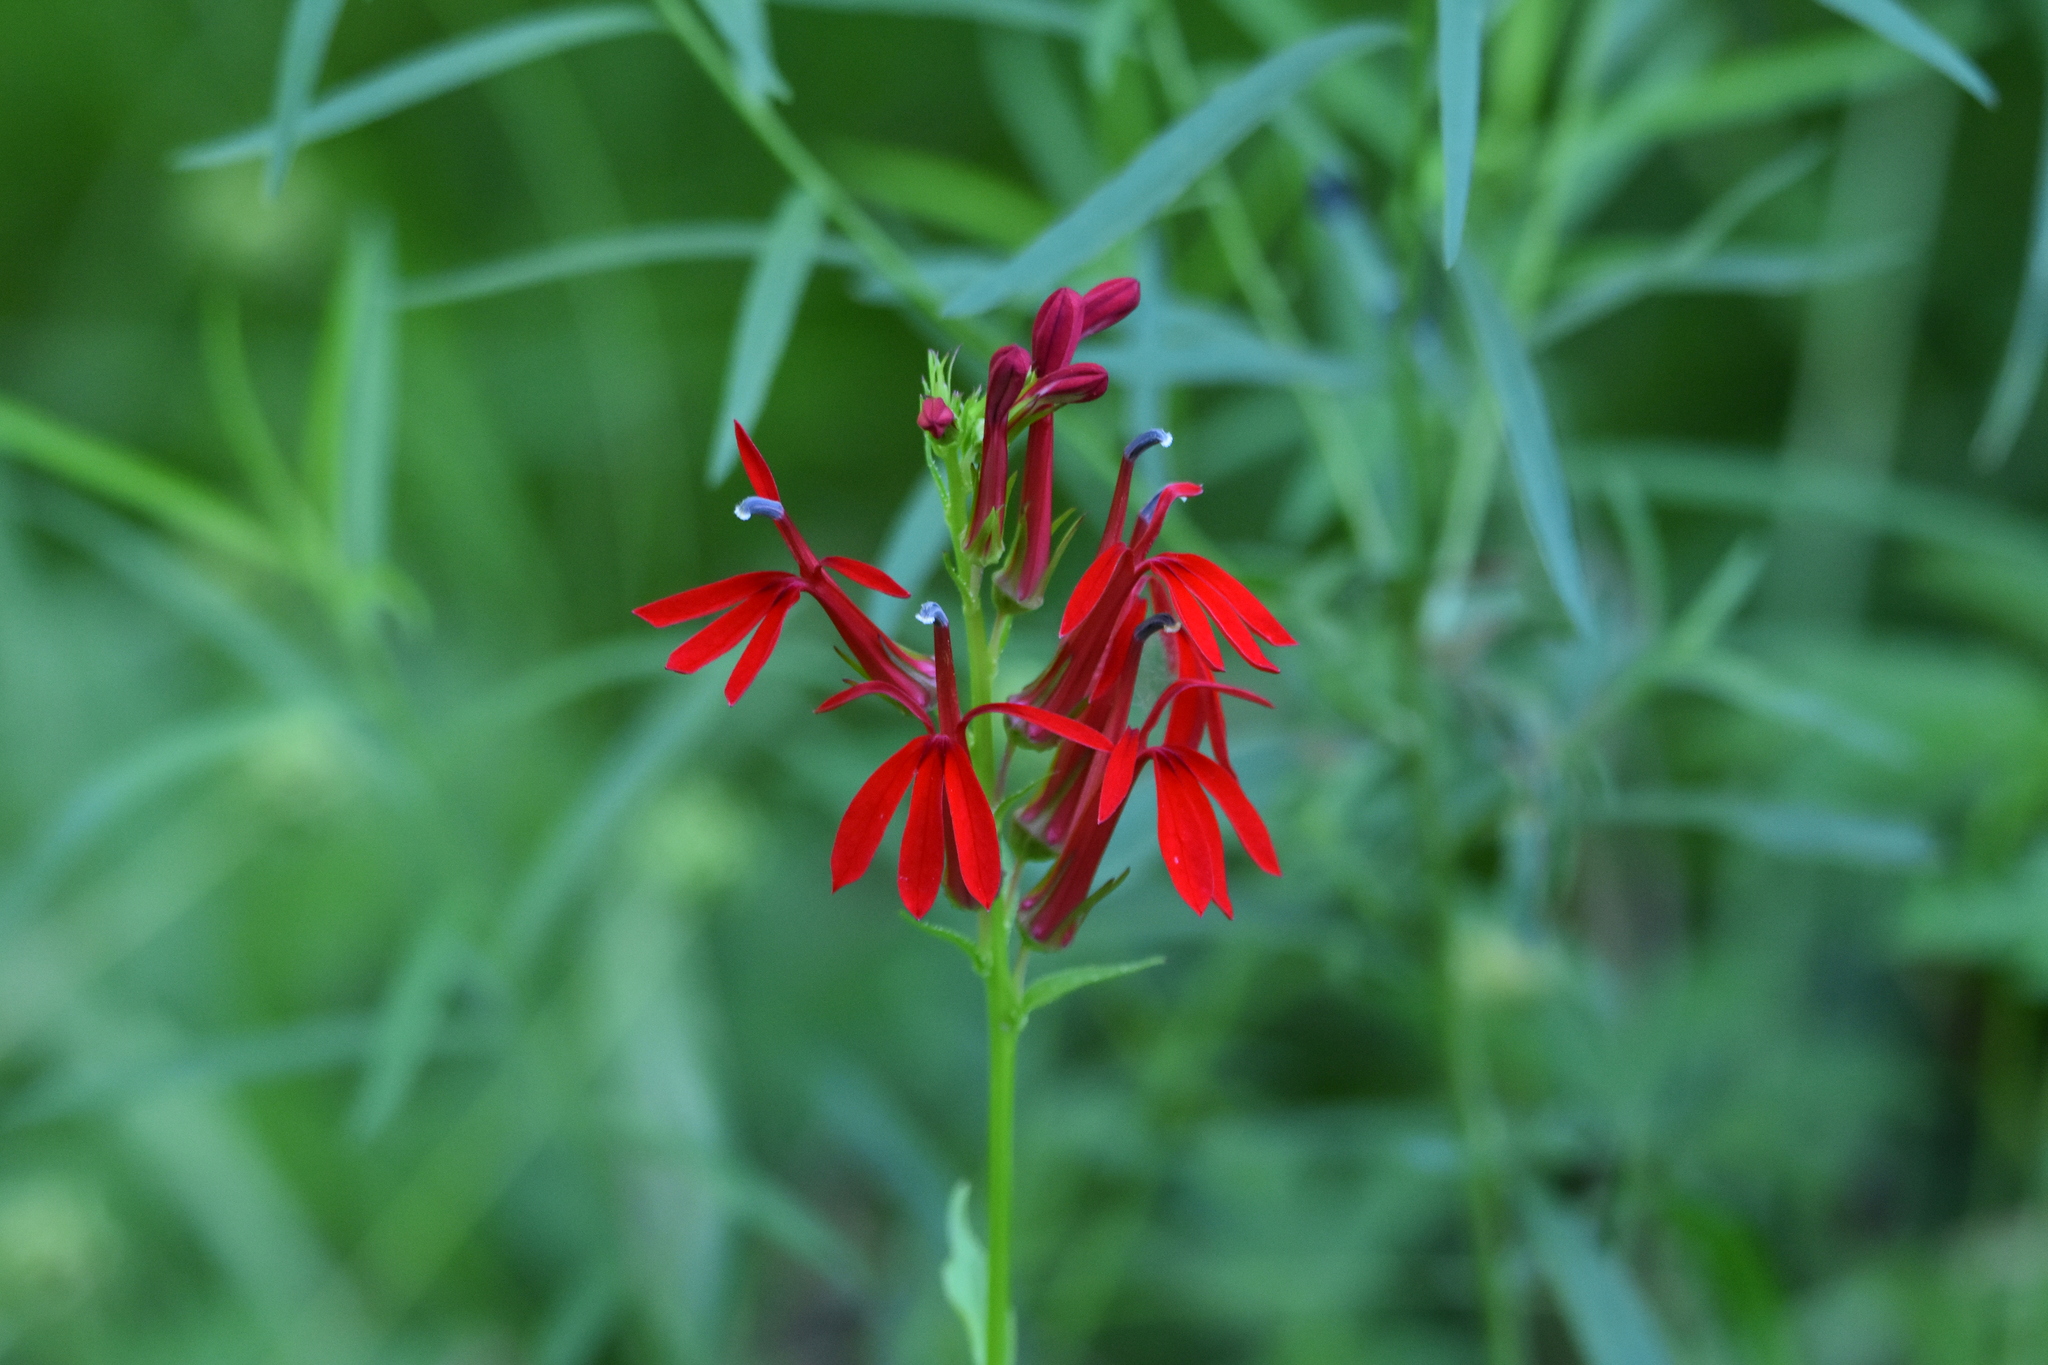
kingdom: Plantae
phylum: Tracheophyta
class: Magnoliopsida
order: Asterales
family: Campanulaceae
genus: Lobelia
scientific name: Lobelia cardinalis
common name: Cardinal flower
